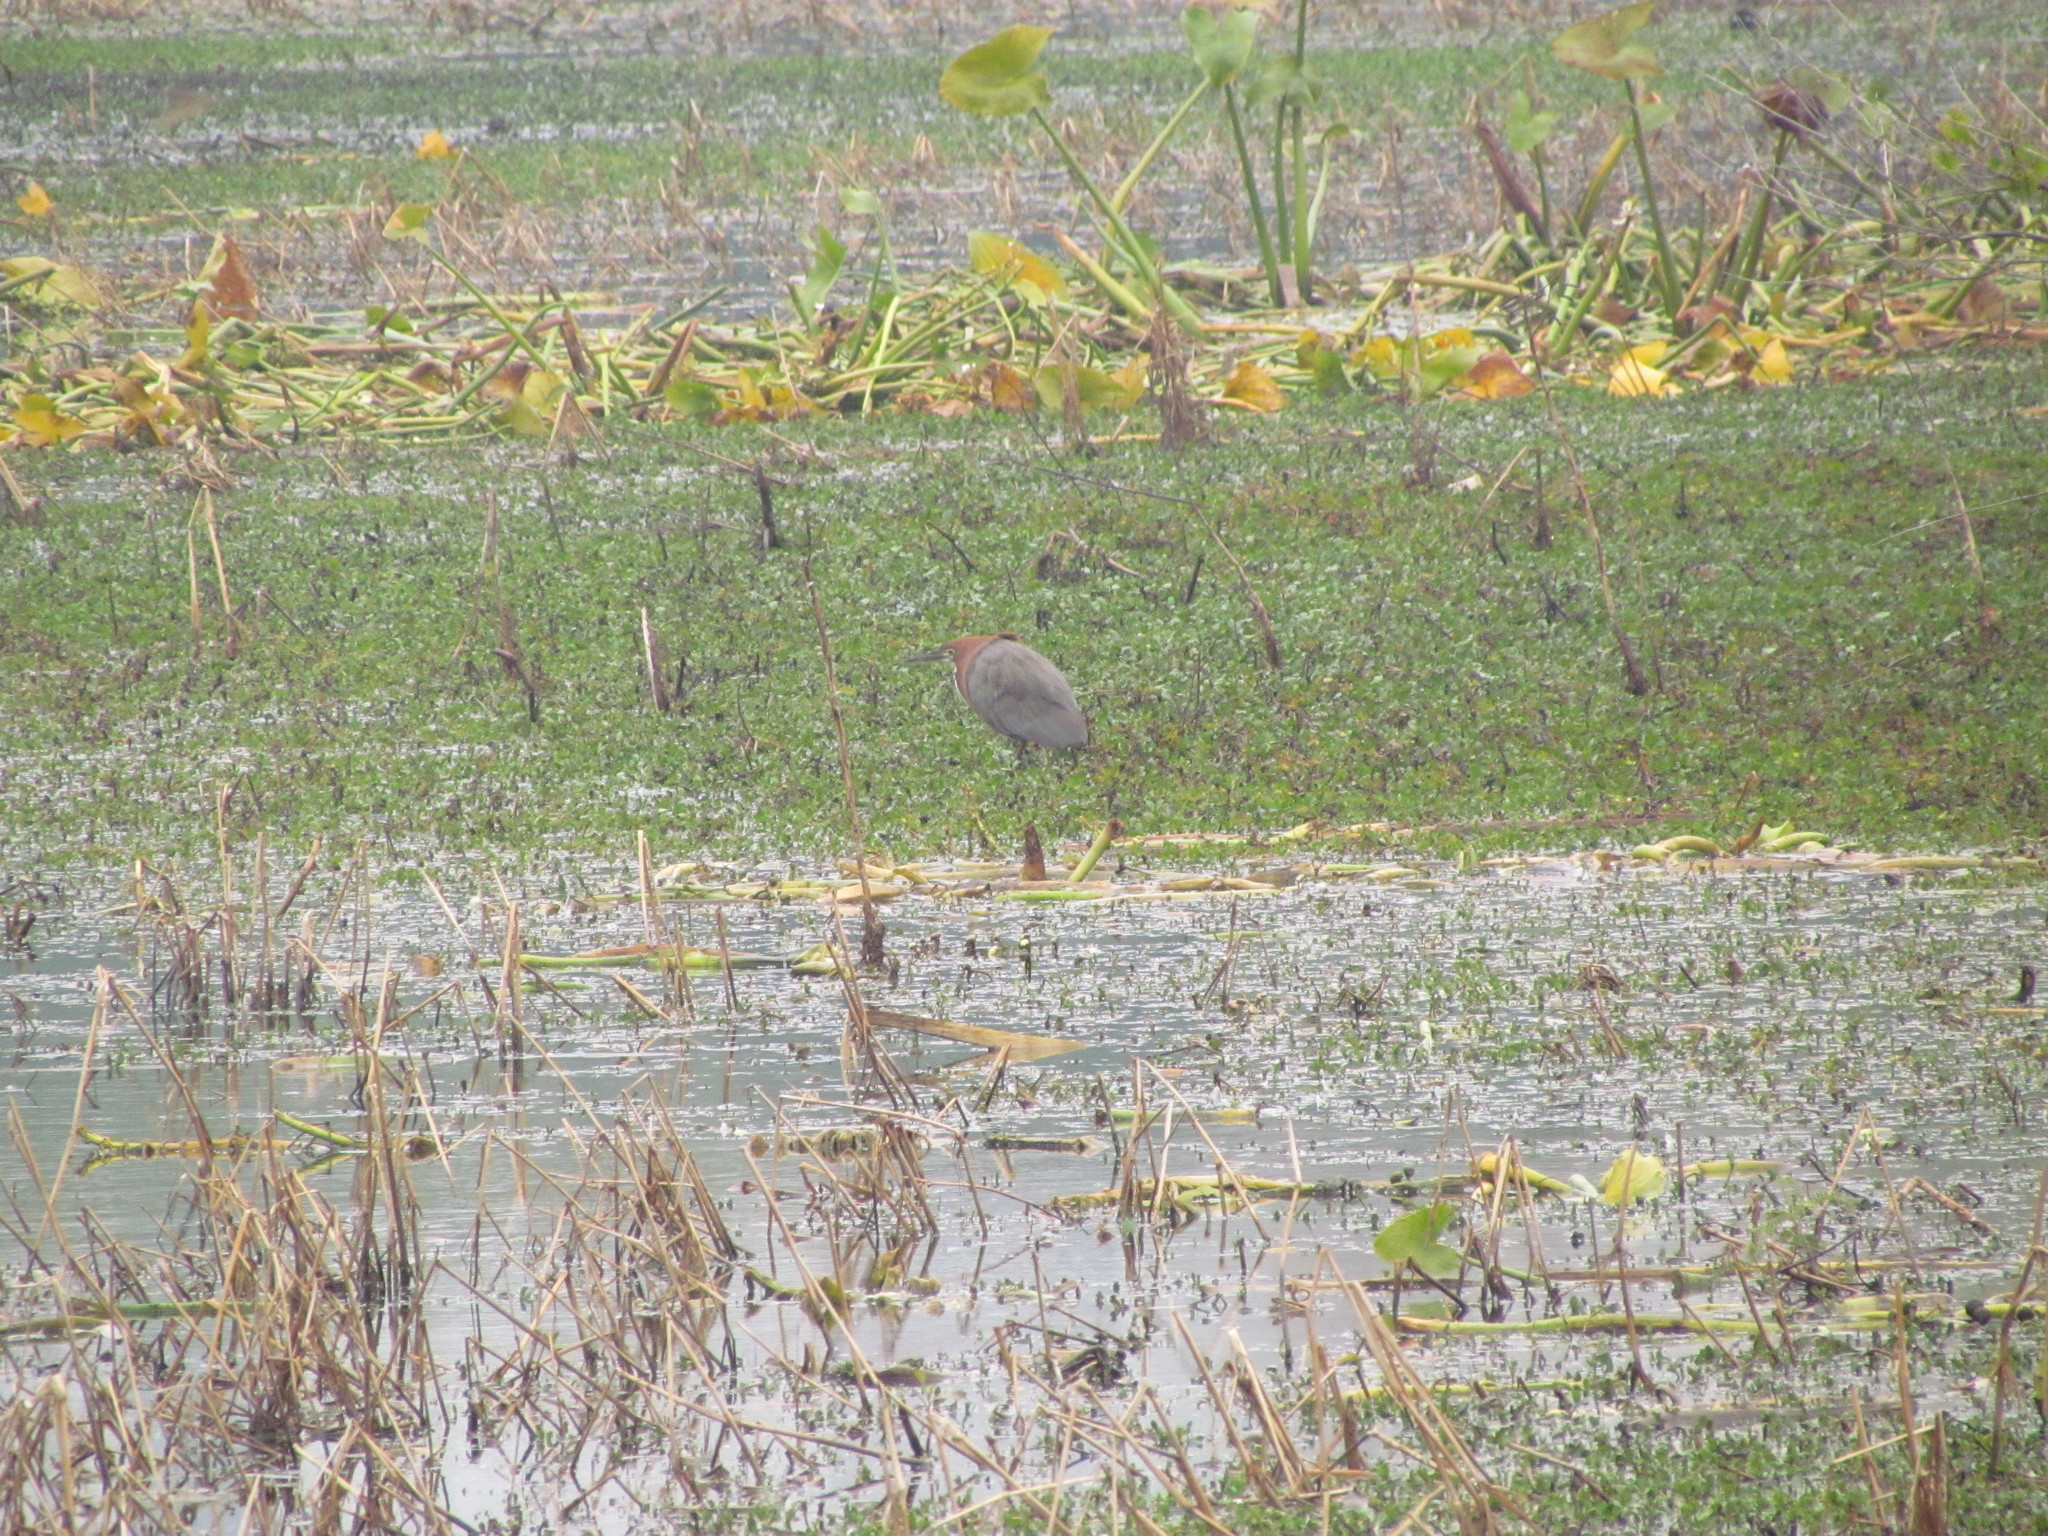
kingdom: Animalia
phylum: Chordata
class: Aves
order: Pelecaniformes
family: Ardeidae
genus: Tigrisoma
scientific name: Tigrisoma lineatum
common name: Rufescent tiger-heron
